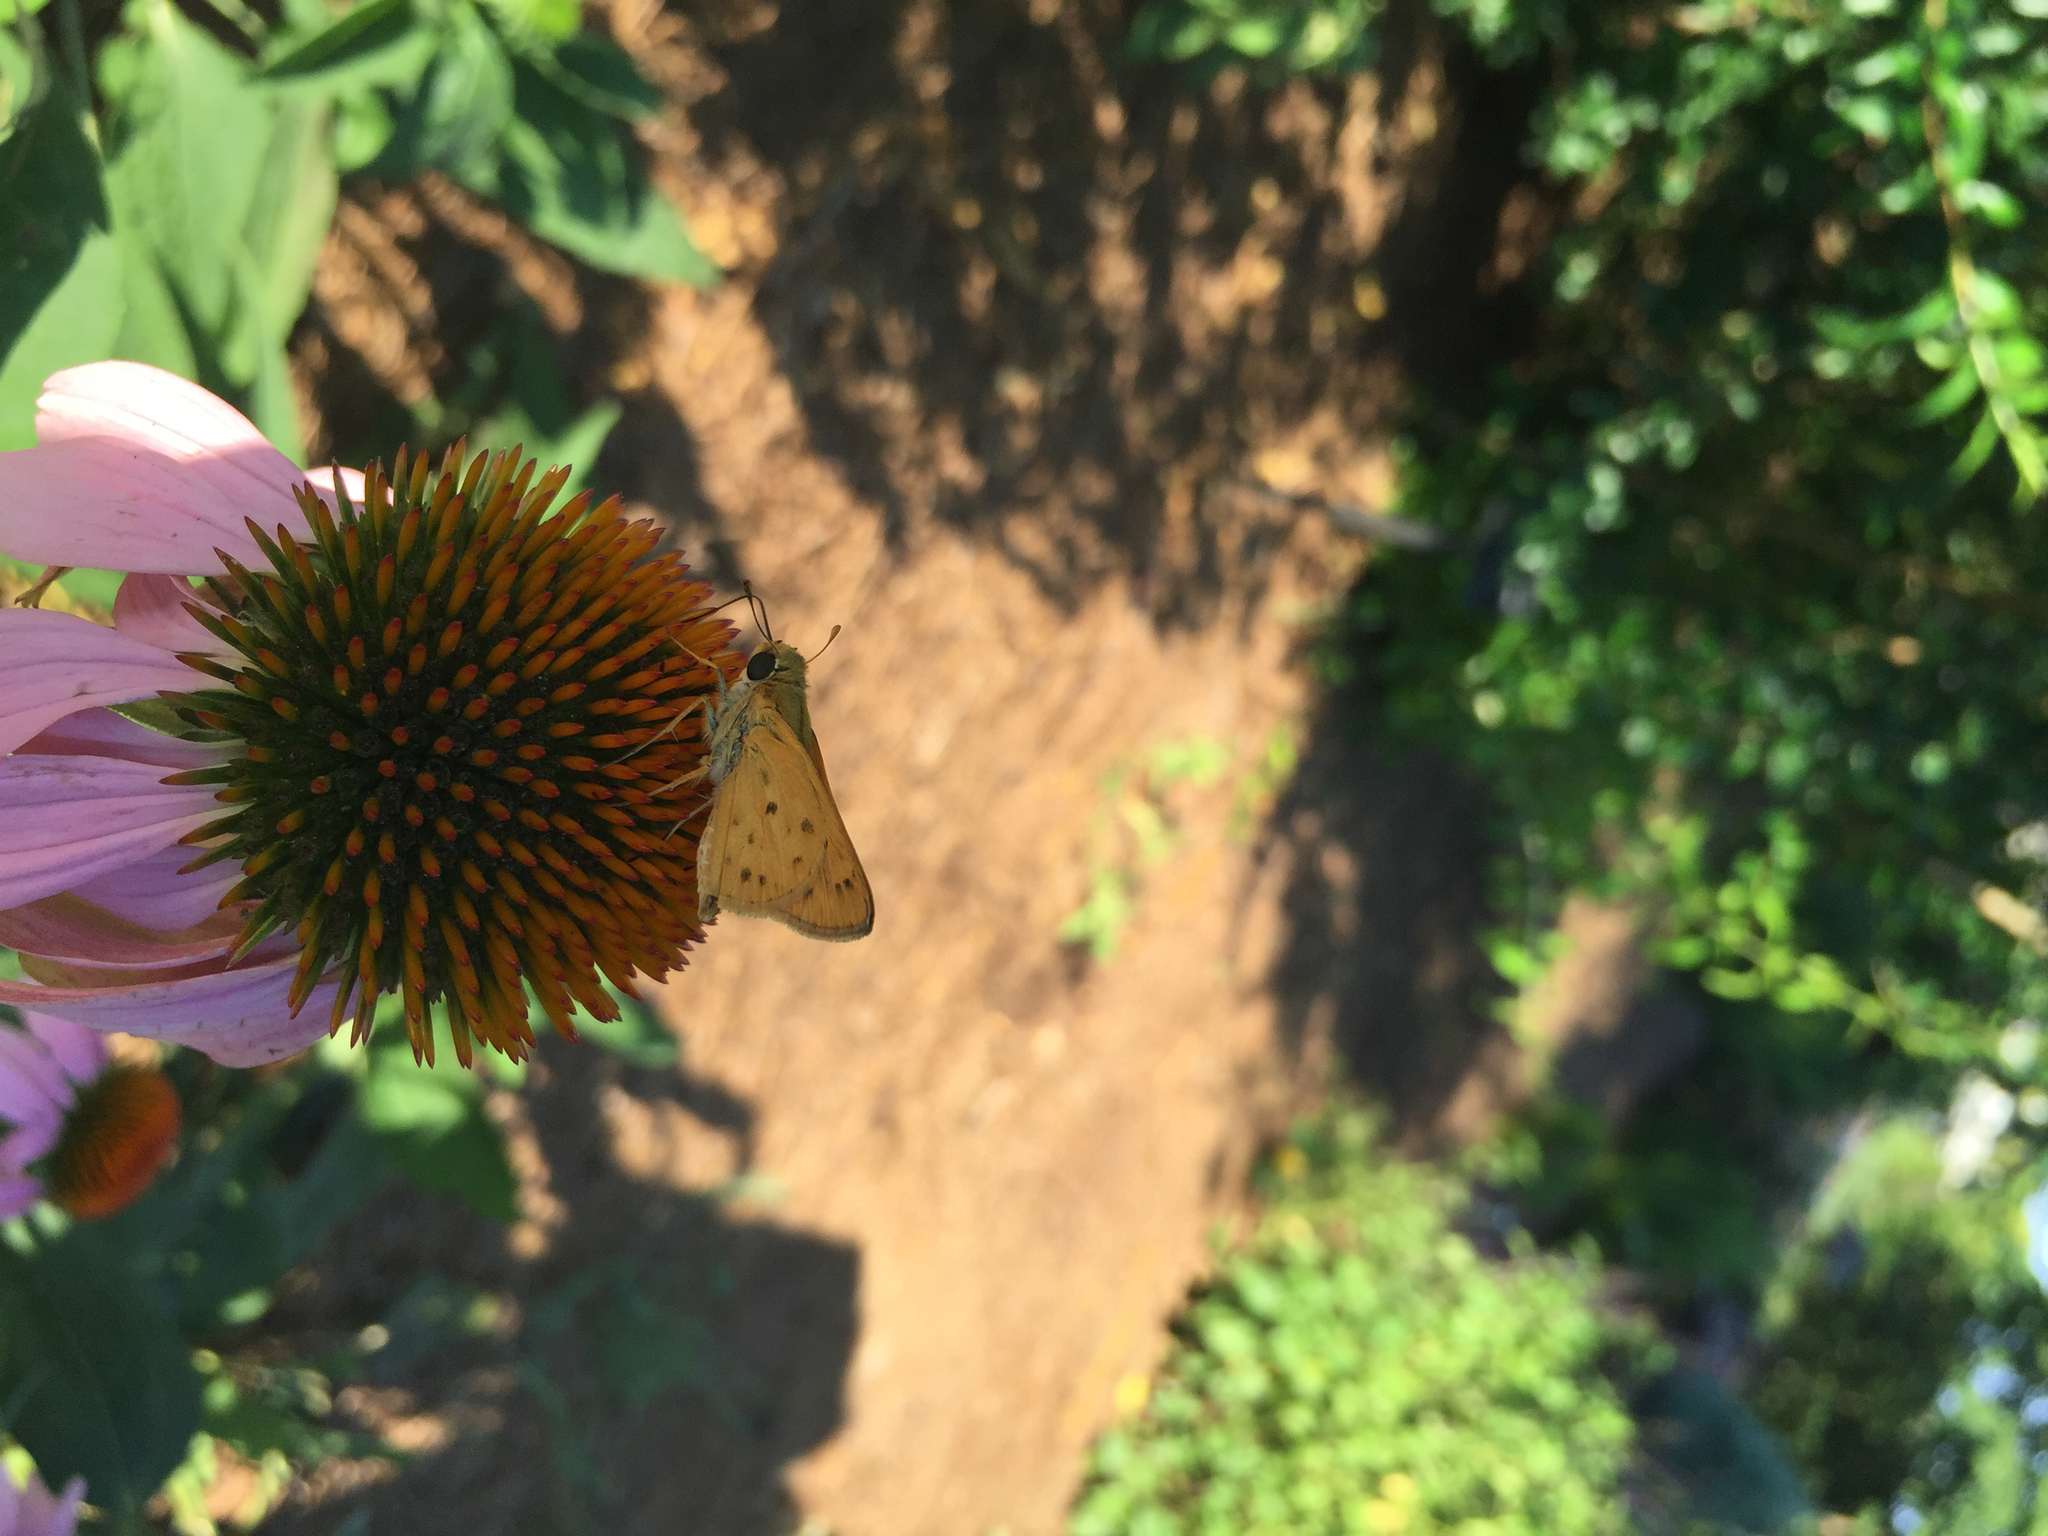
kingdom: Animalia
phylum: Arthropoda
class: Insecta
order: Lepidoptera
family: Hesperiidae
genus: Hylephila
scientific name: Hylephila phyleus
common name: Fiery skipper
